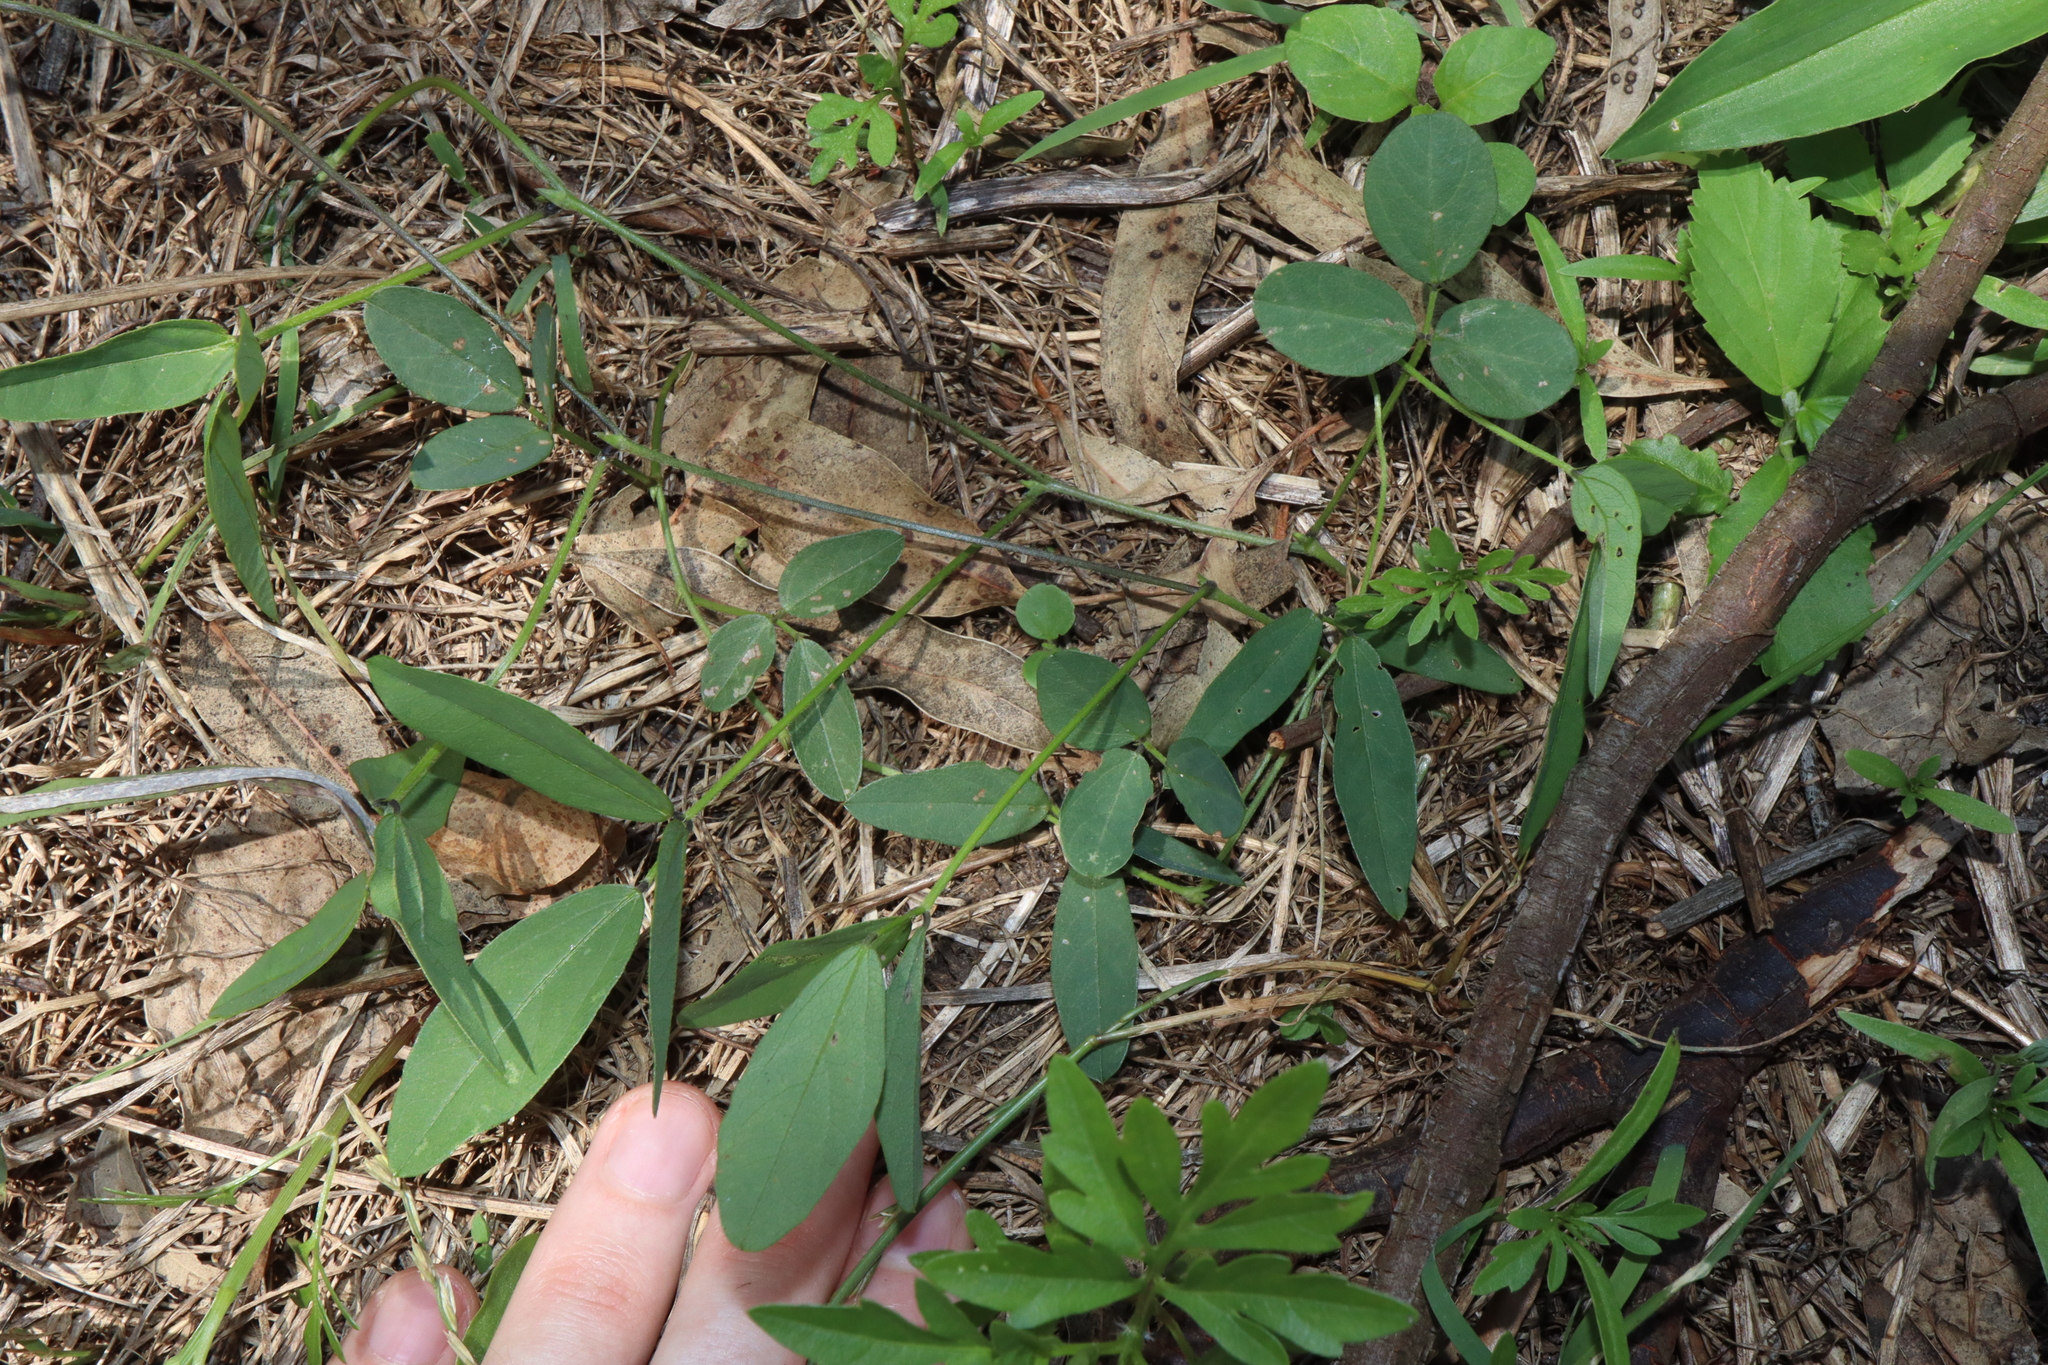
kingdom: Plantae
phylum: Tracheophyta
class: Magnoliopsida
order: Fabales
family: Fabaceae
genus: Glycine
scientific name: Glycine tabacina
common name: Pea glycine
